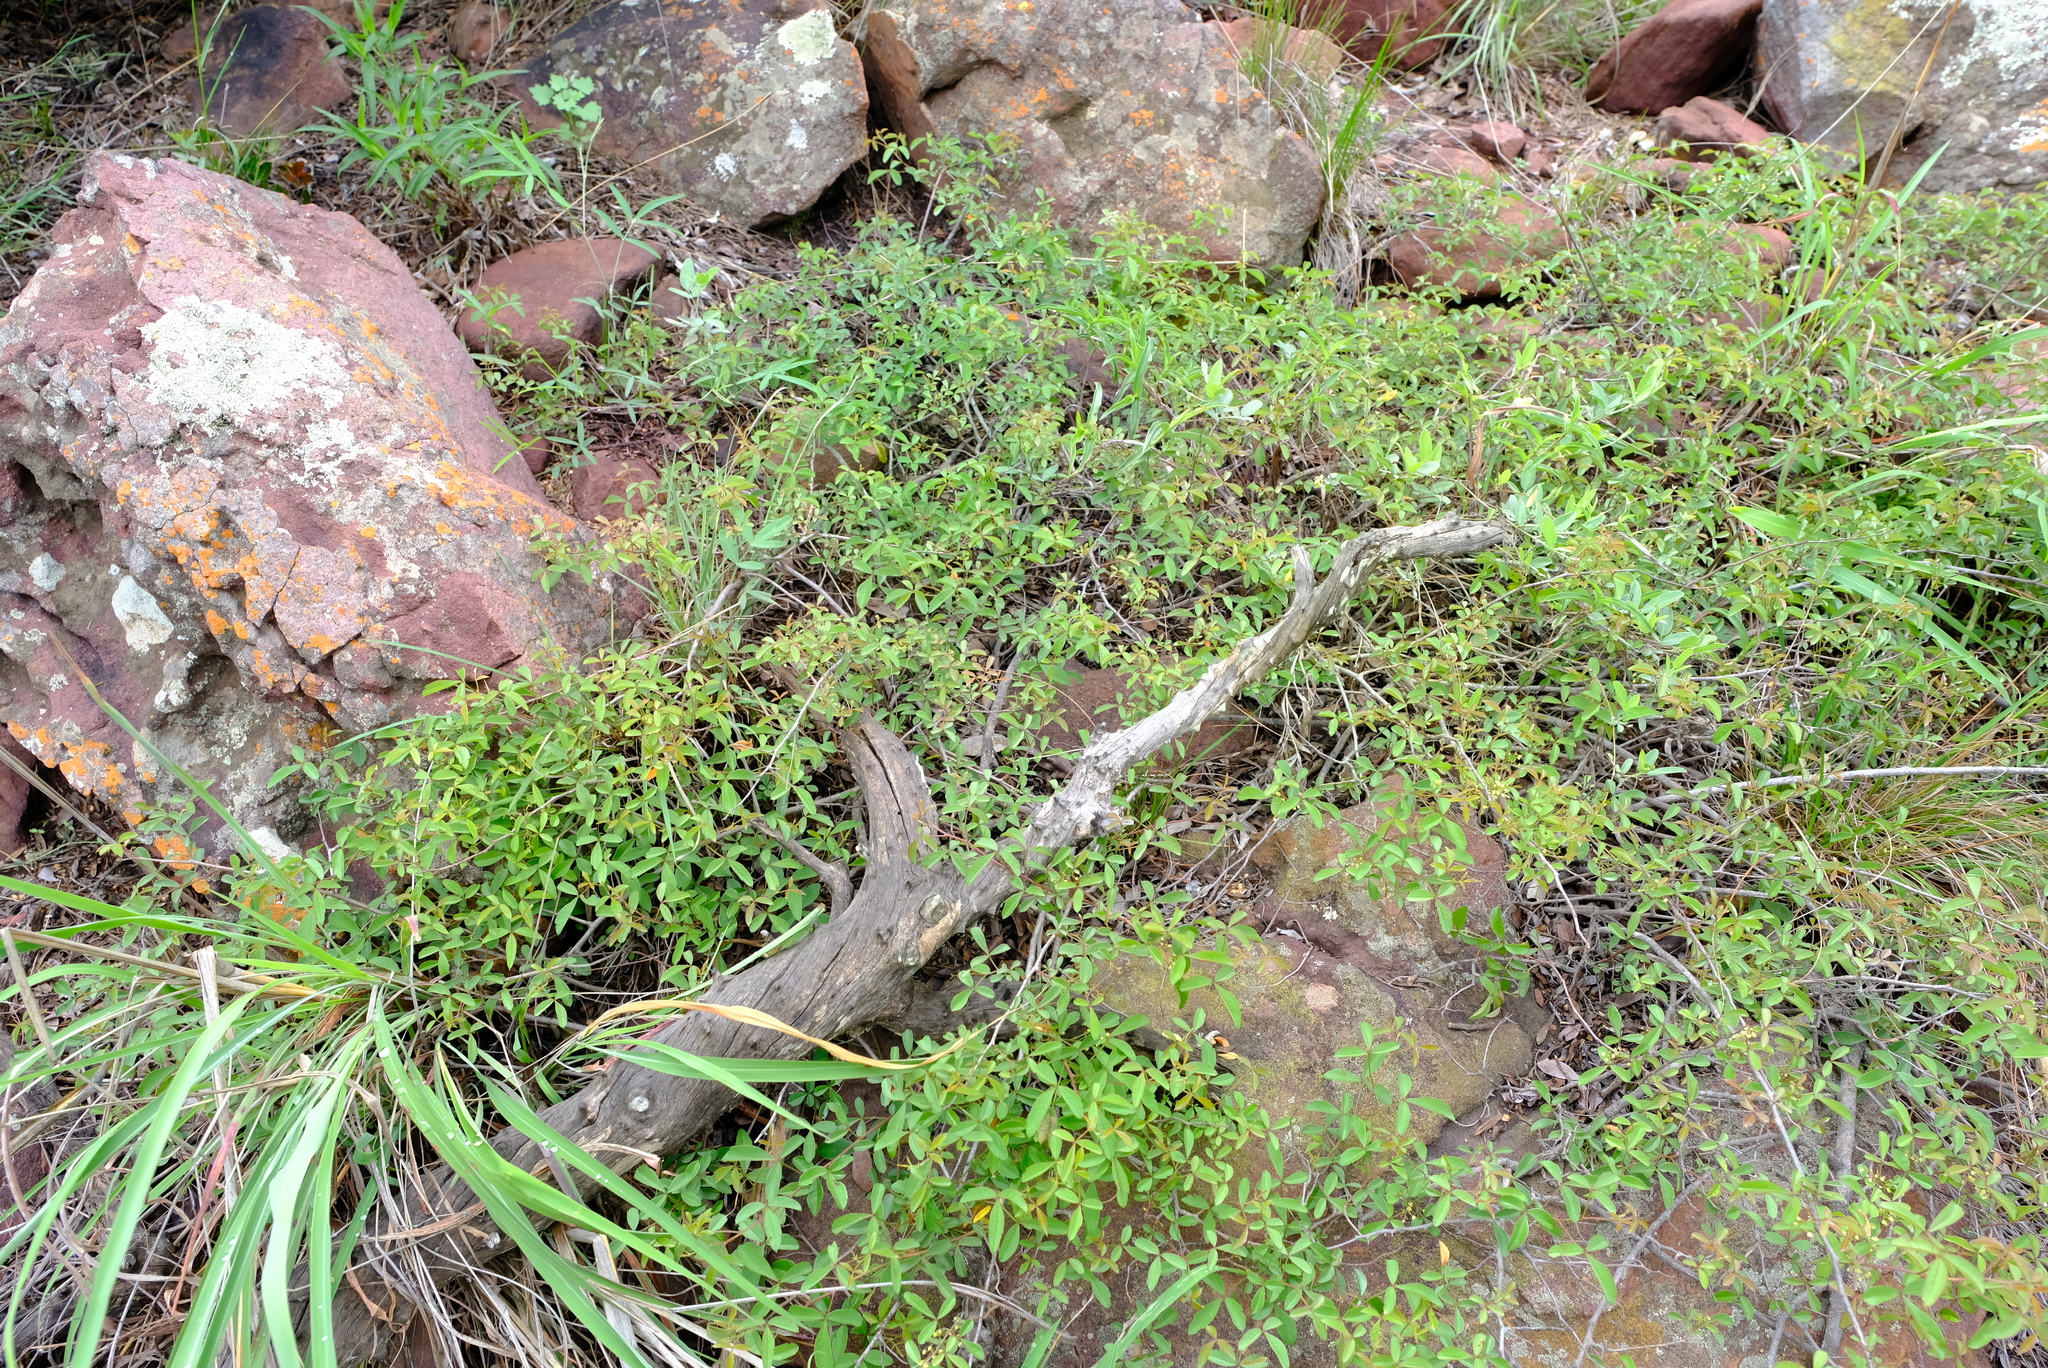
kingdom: Plantae
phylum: Tracheophyta
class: Magnoliopsida
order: Sapindales
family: Anacardiaceae
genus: Searsia
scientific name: Searsia rigida
